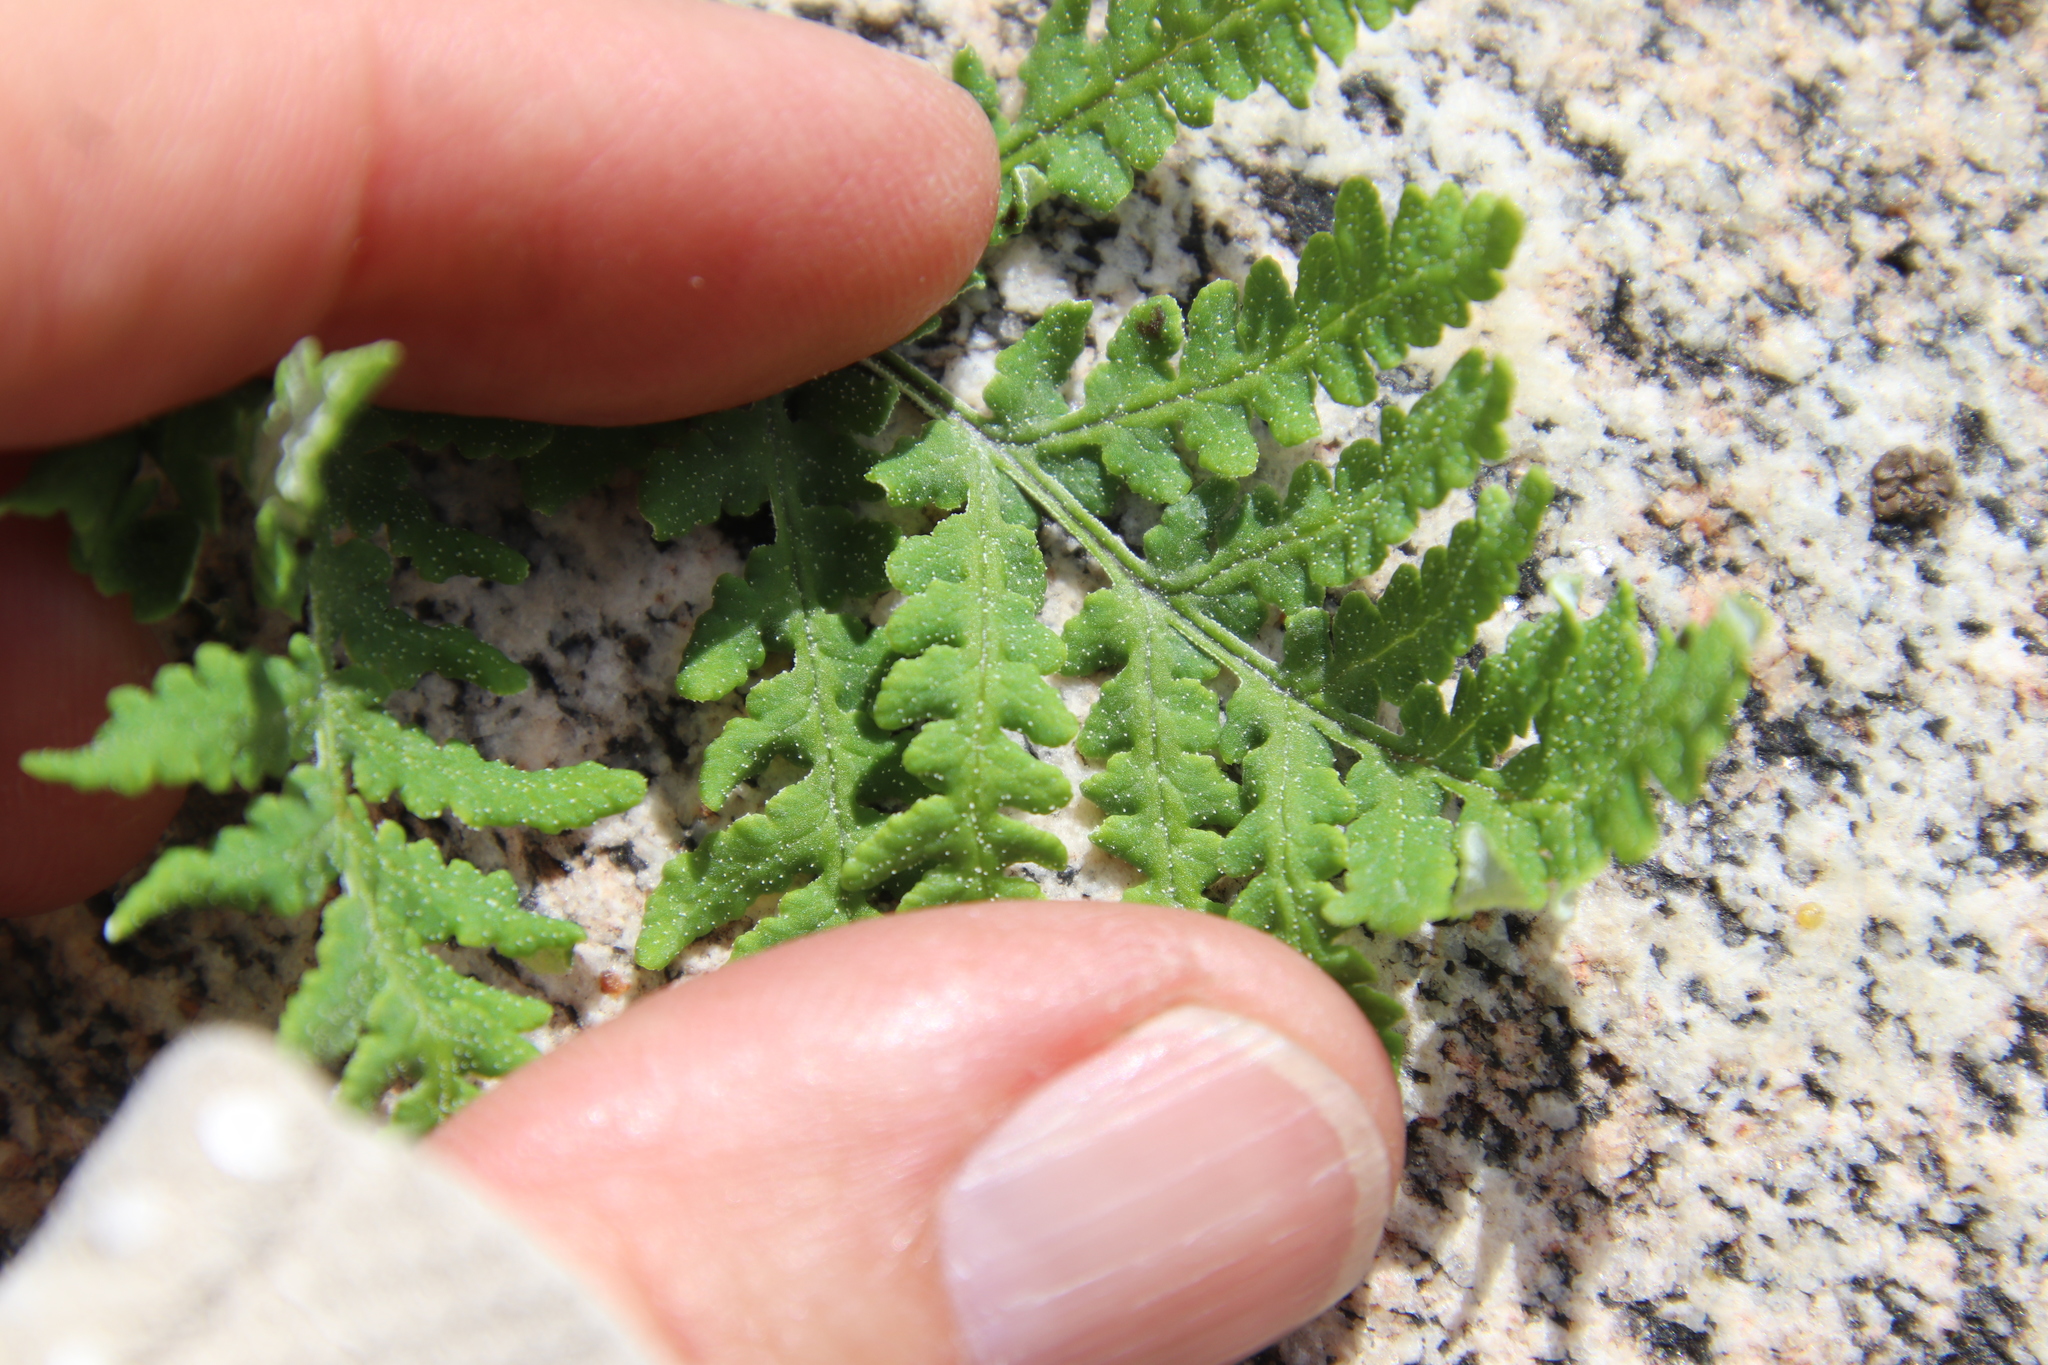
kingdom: Plantae
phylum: Tracheophyta
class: Polypodiopsida
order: Polypodiales
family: Pteridaceae
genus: Pentagramma
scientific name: Pentagramma rebmanii
